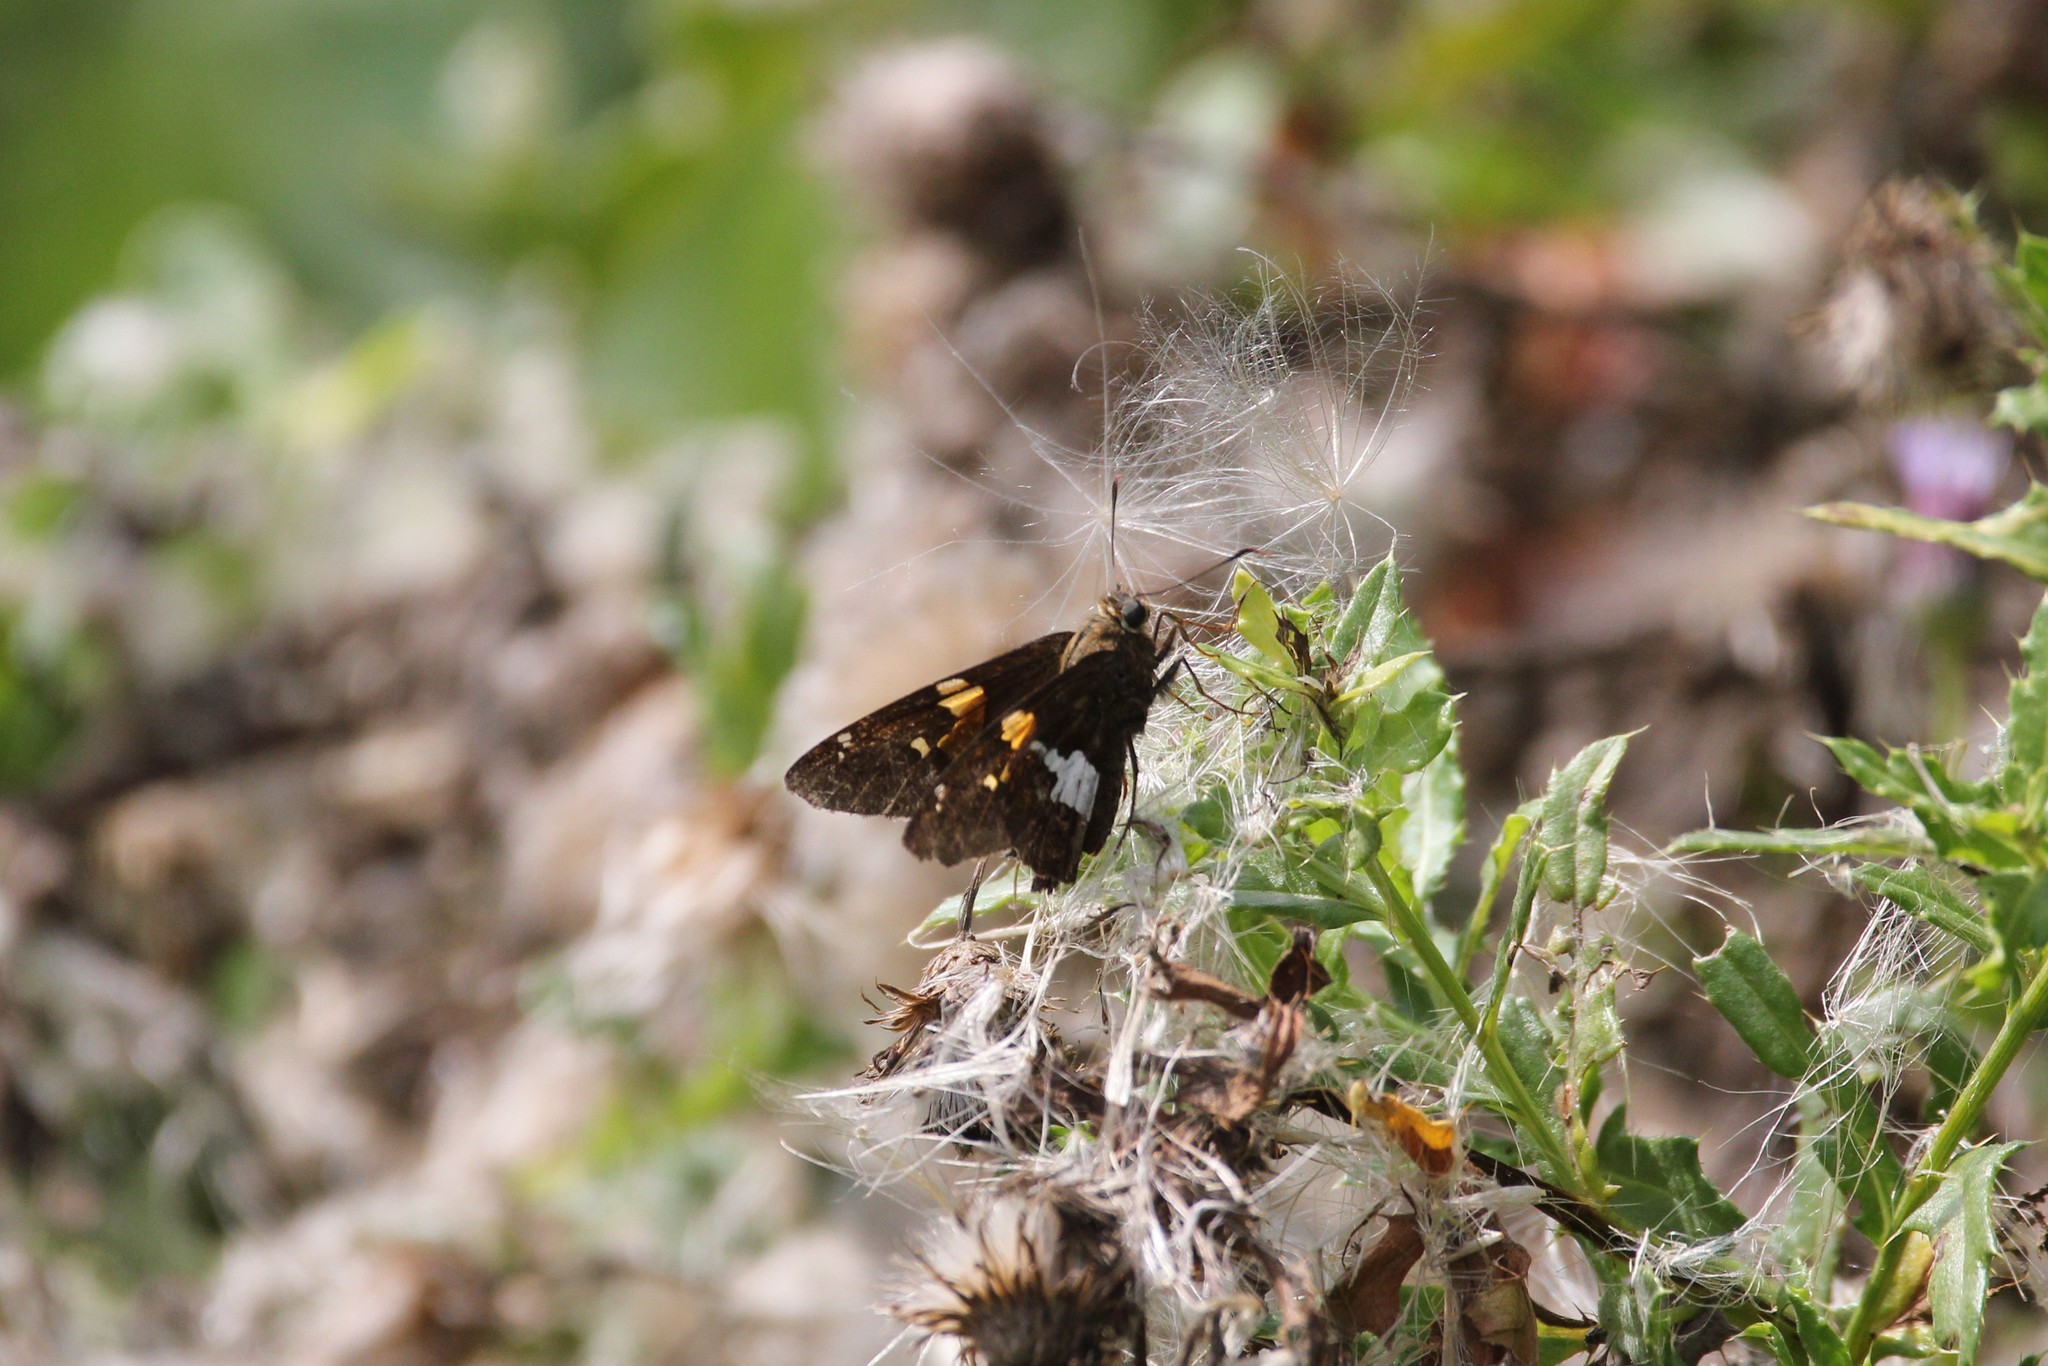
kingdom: Animalia
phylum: Arthropoda
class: Insecta
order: Lepidoptera
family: Hesperiidae
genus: Epargyreus
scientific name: Epargyreus clarus
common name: Silver-spotted skipper
